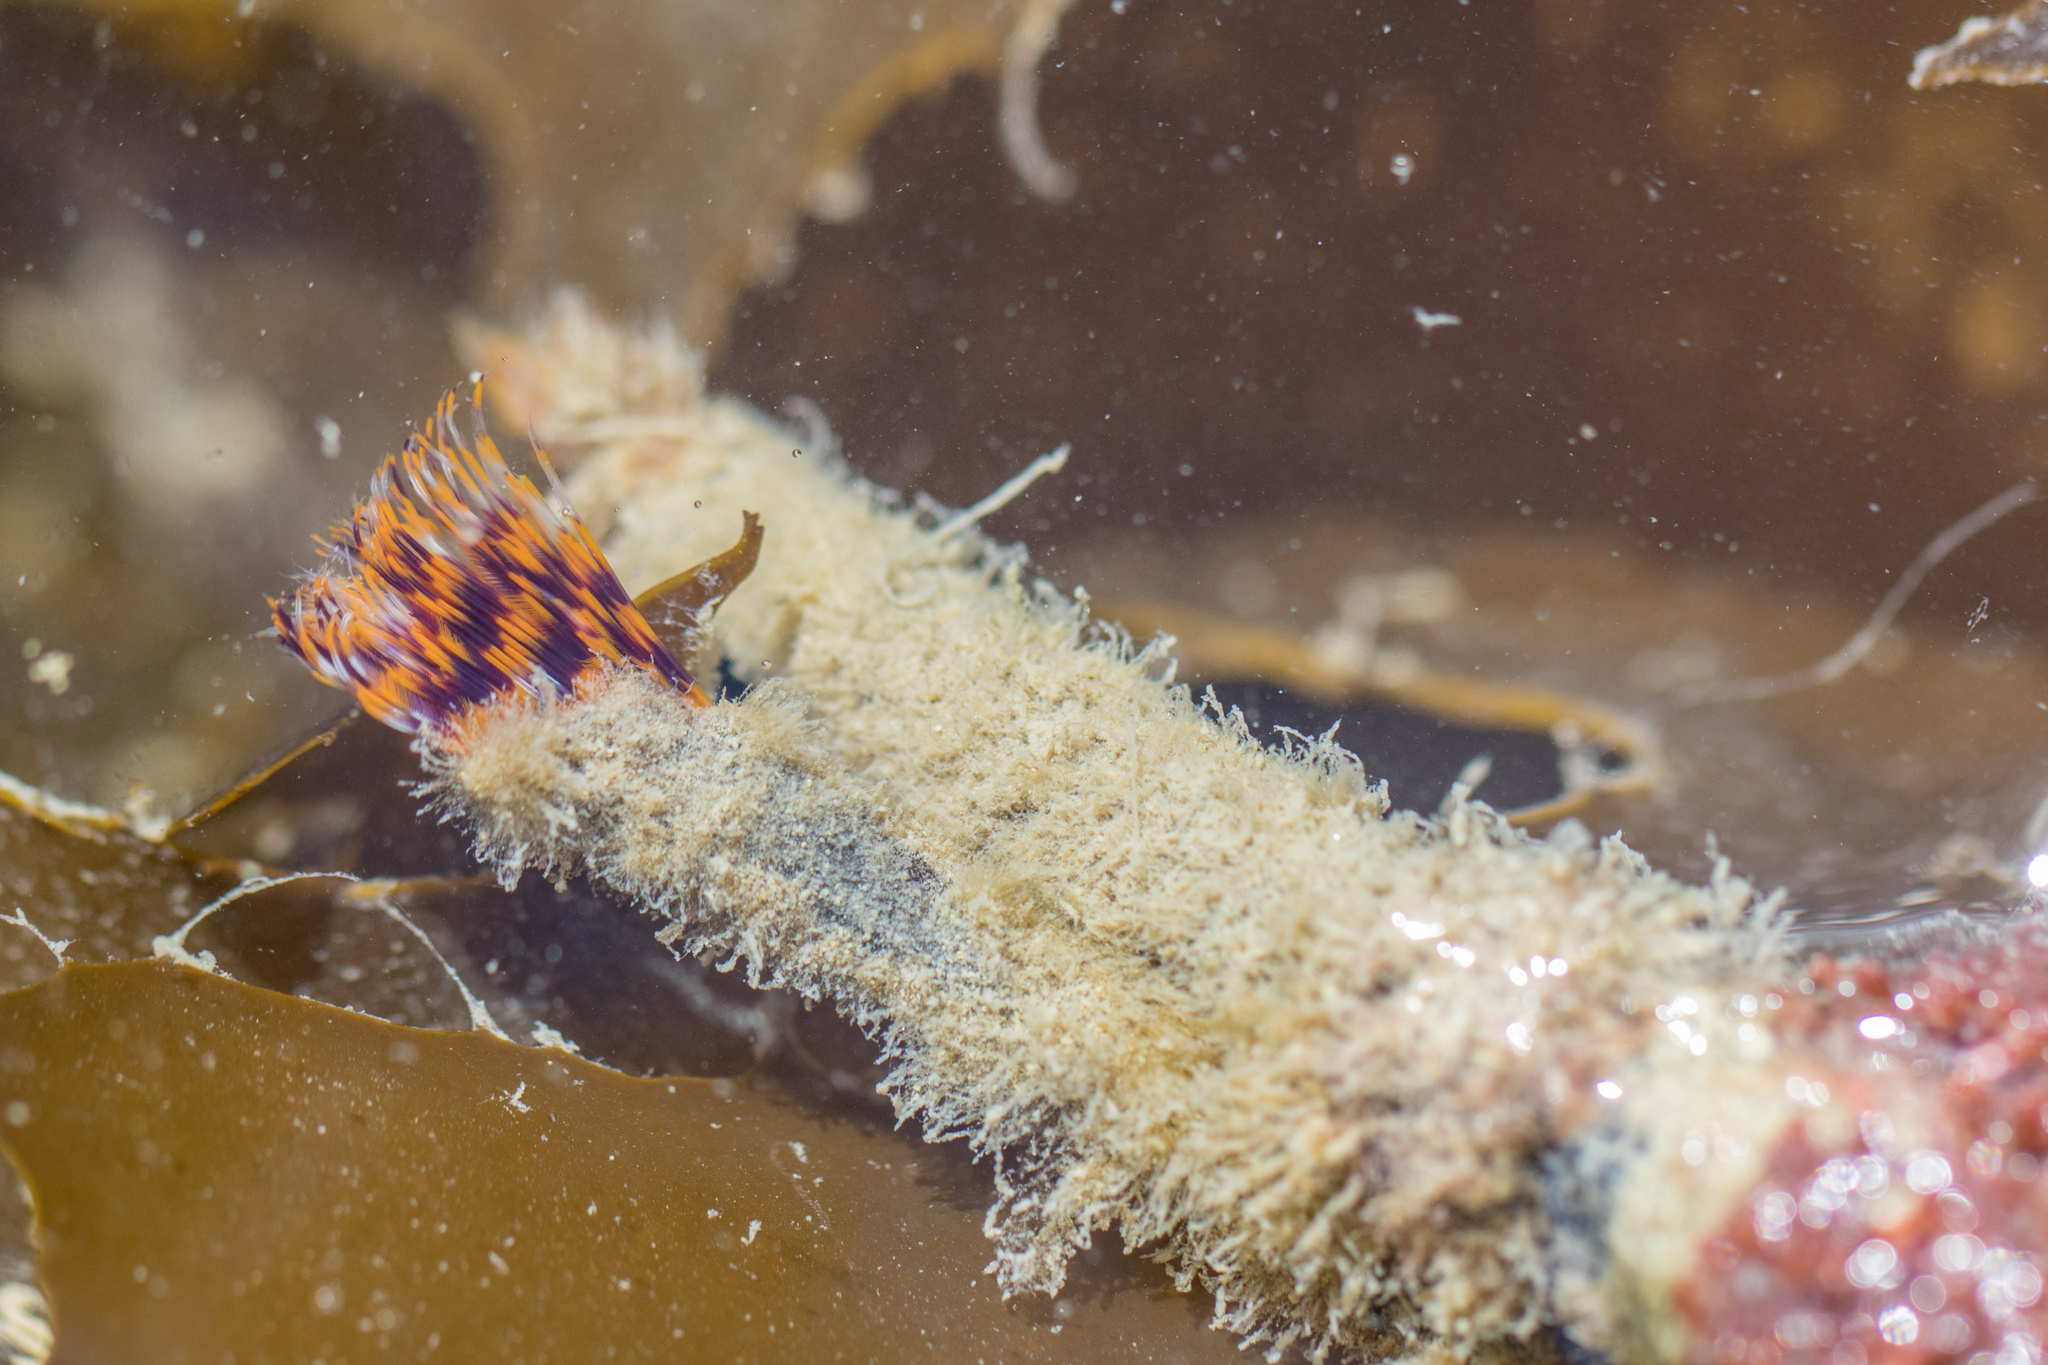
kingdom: Animalia
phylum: Annelida
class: Polychaeta
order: Sabellida
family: Sabellidae
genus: Sabella
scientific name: Sabella spallanzanii
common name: Feather duster worm
